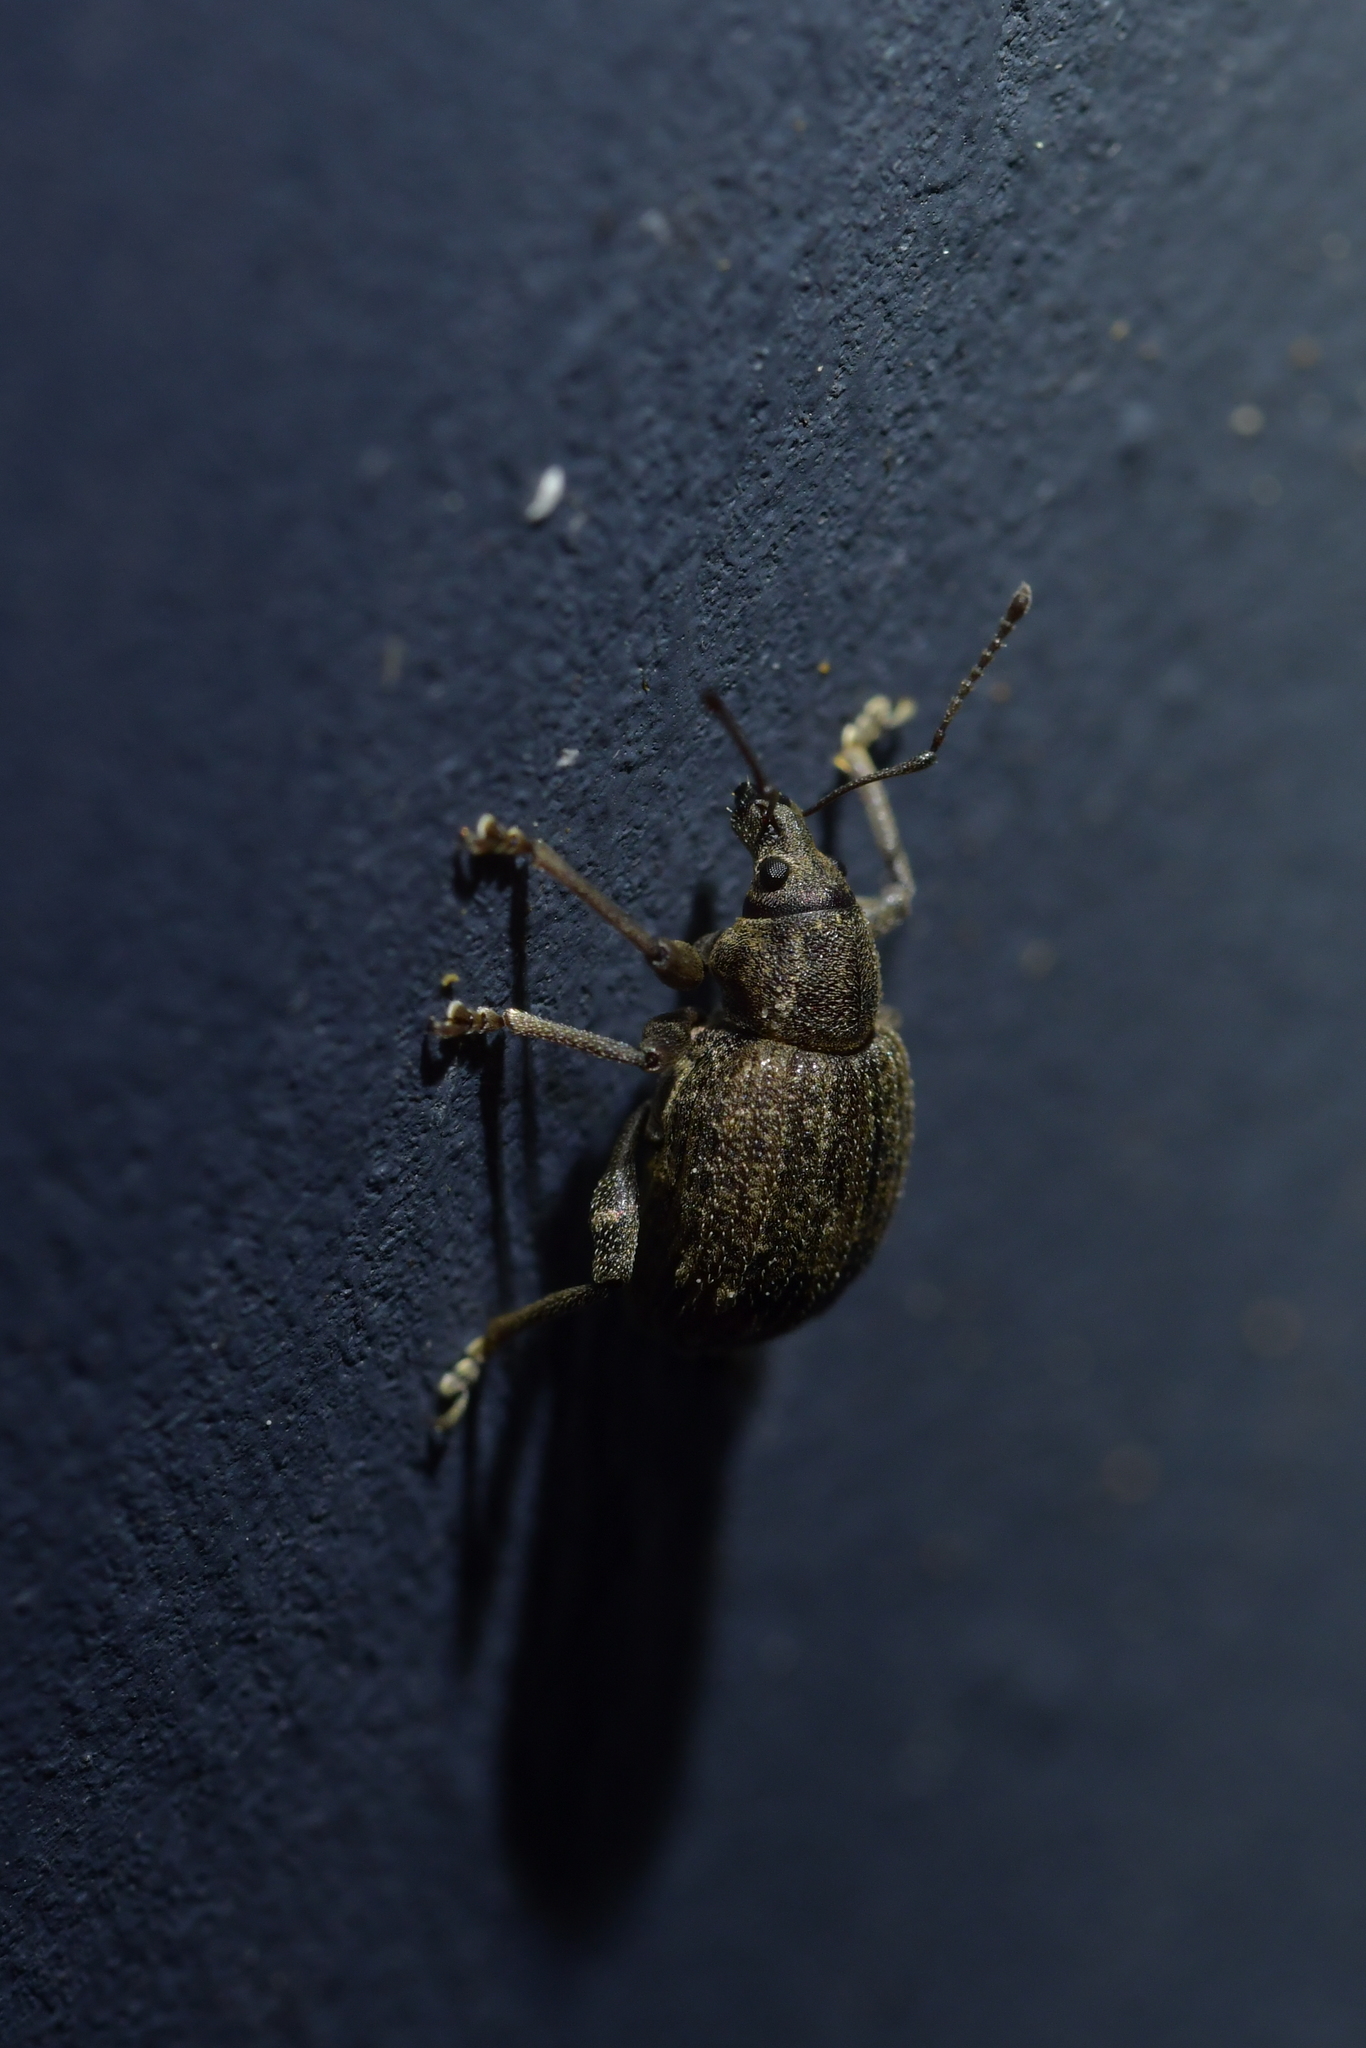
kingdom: Animalia
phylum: Arthropoda
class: Insecta
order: Coleoptera
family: Curculionidae
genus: Phlyctinus
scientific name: Phlyctinus callosus
